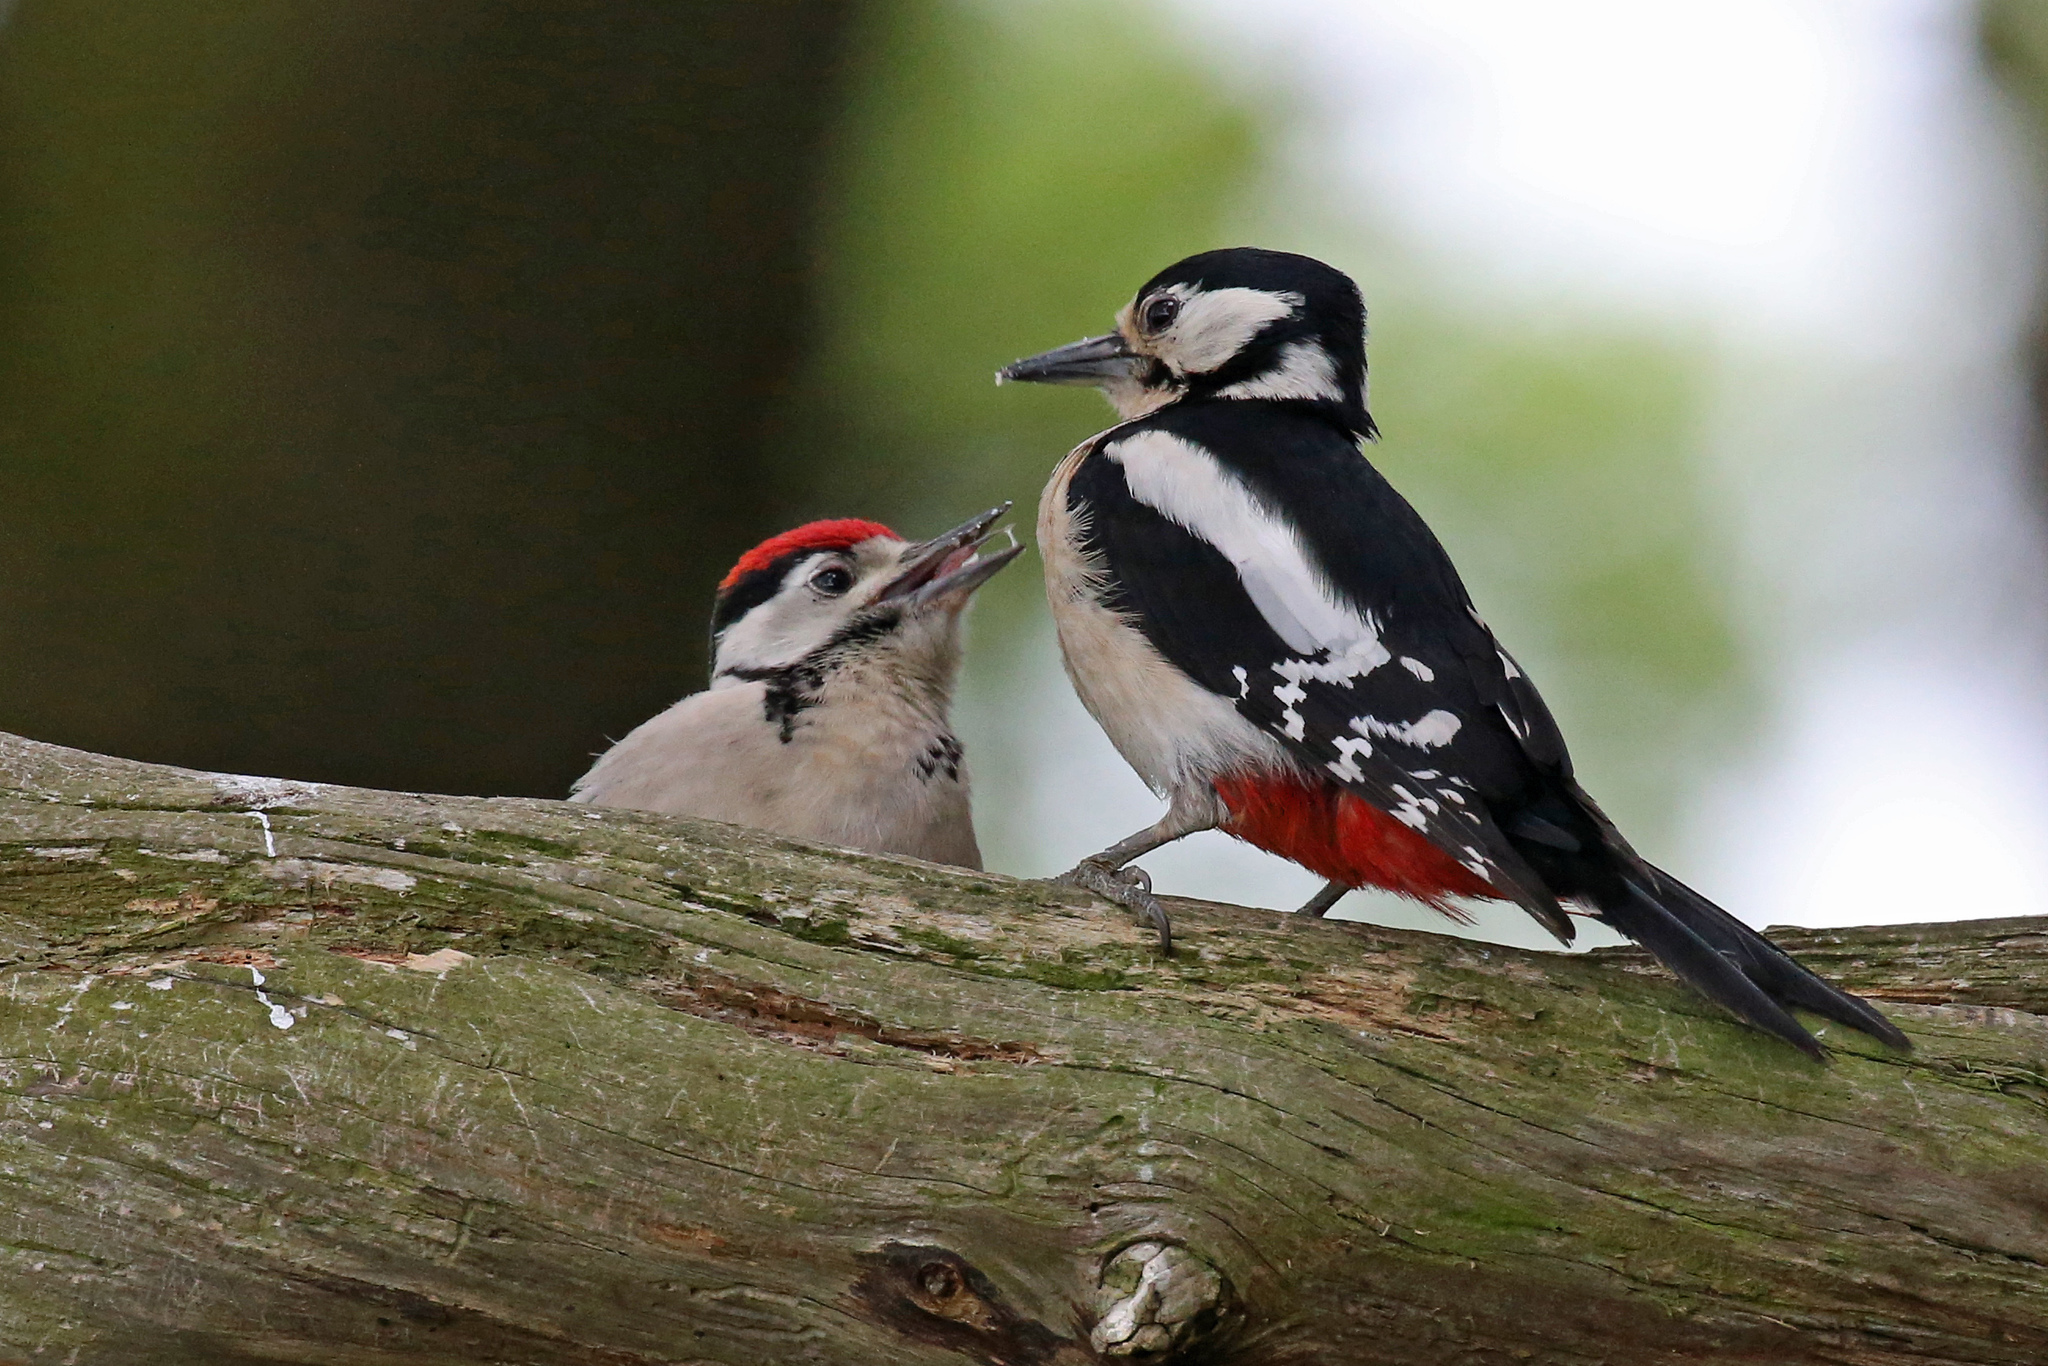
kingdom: Animalia
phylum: Chordata
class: Aves
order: Piciformes
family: Picidae
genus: Dendrocopos
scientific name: Dendrocopos major
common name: Great spotted woodpecker
